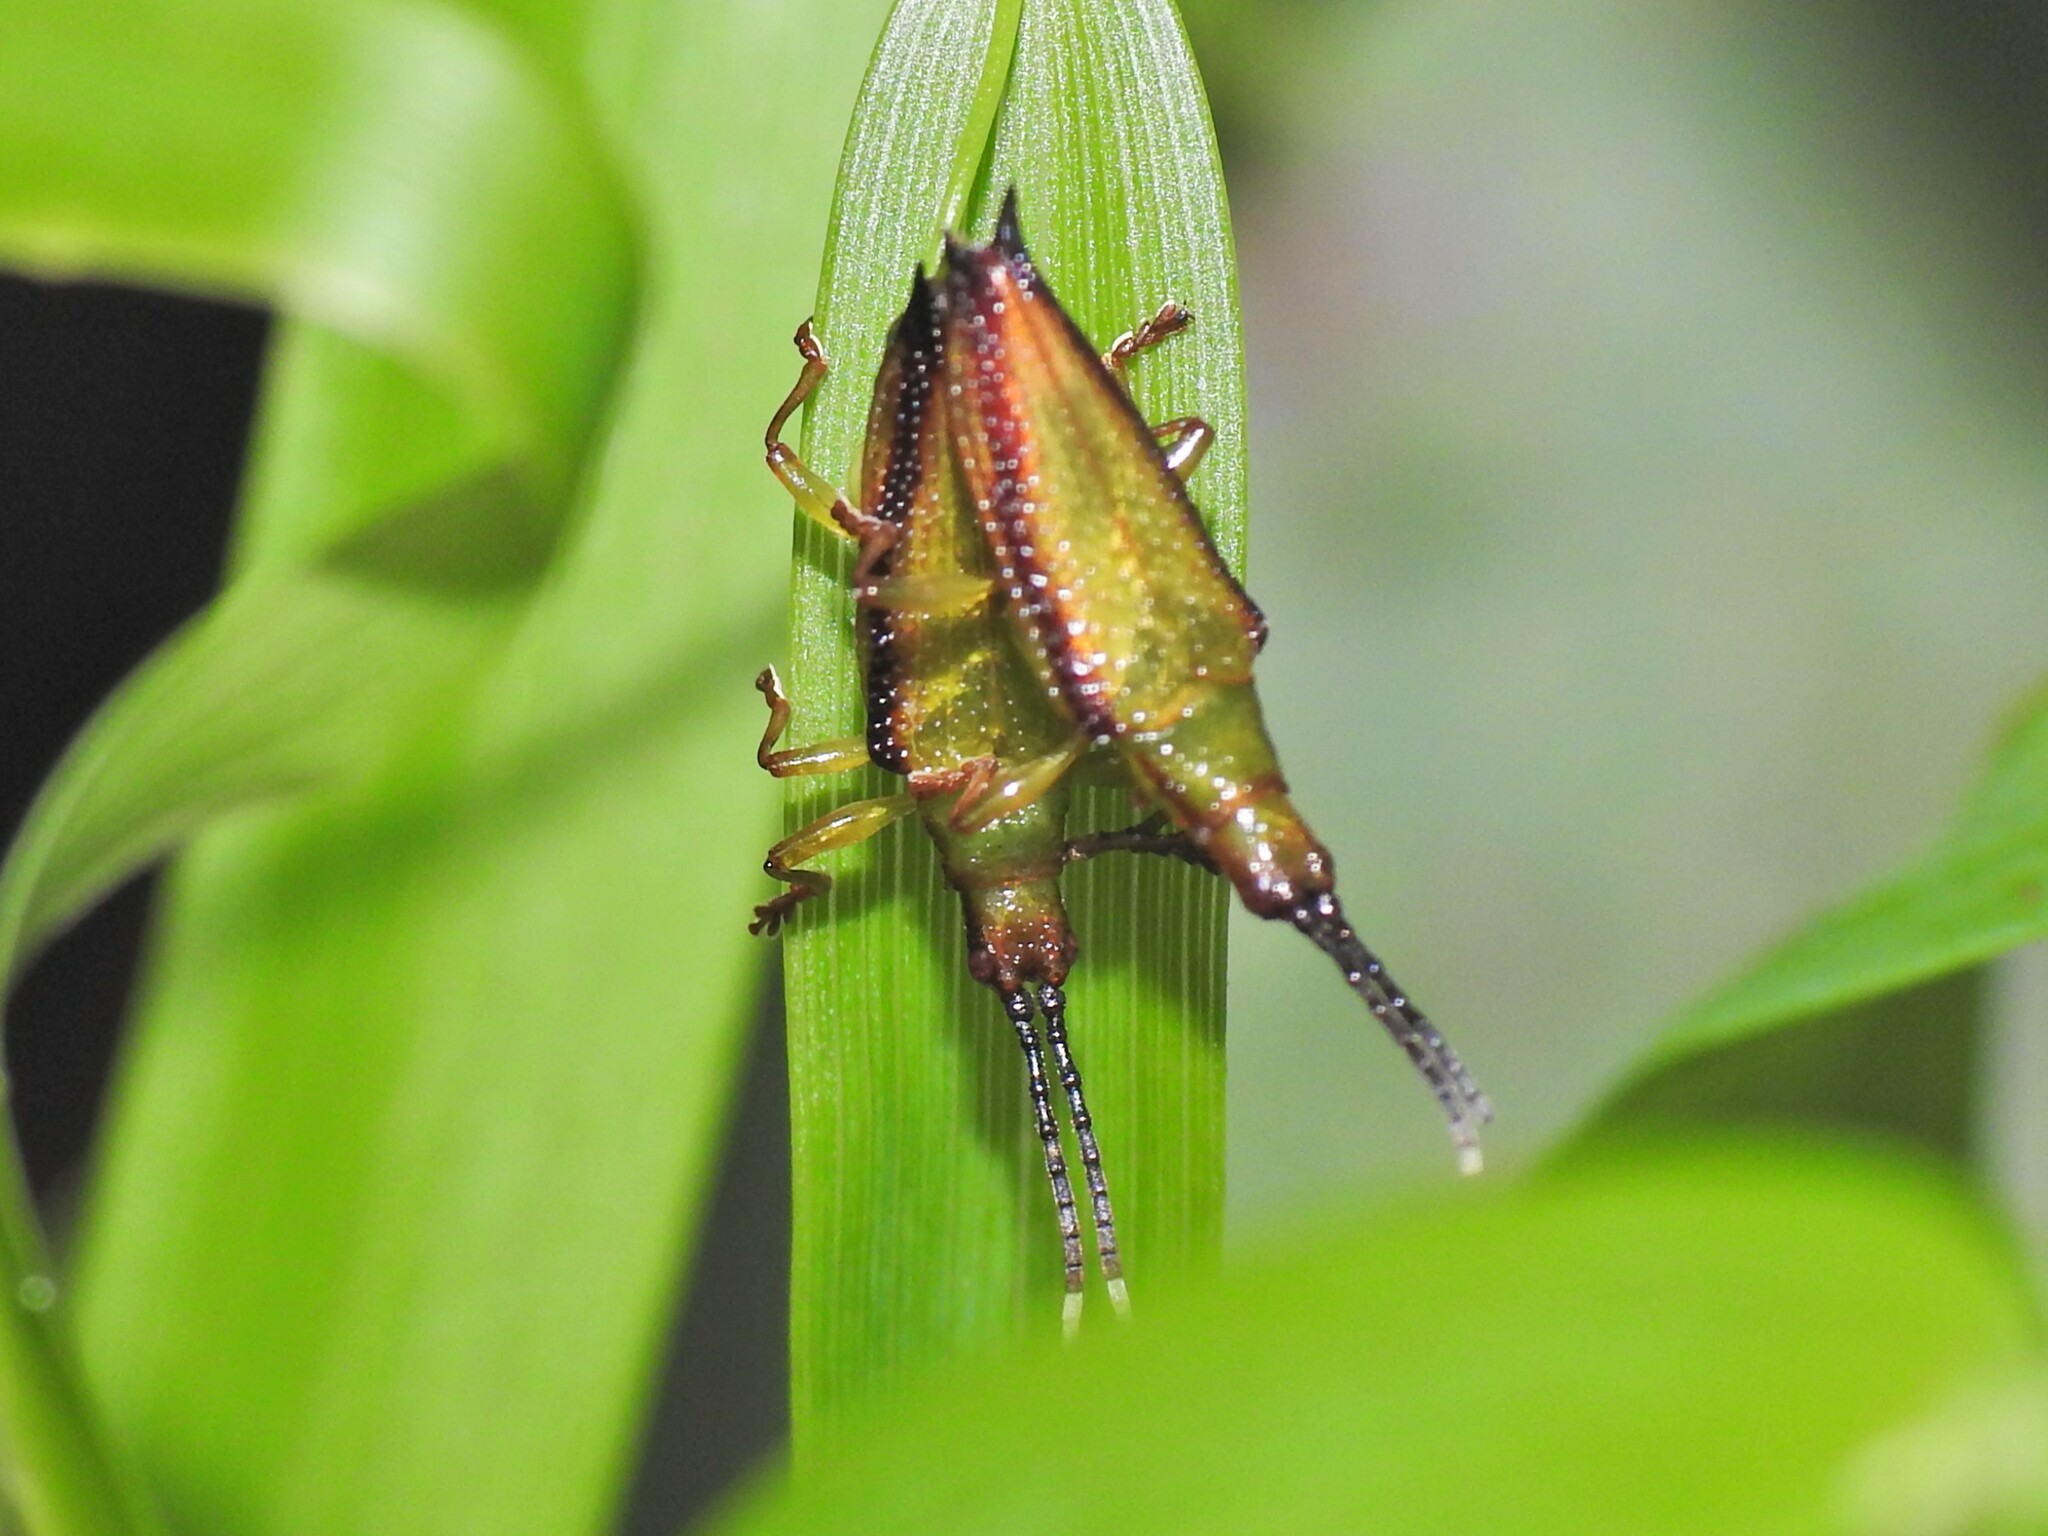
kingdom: Animalia
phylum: Arthropoda
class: Insecta
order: Coleoptera
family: Chrysomelidae
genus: Aproida
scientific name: Aproida balyi
